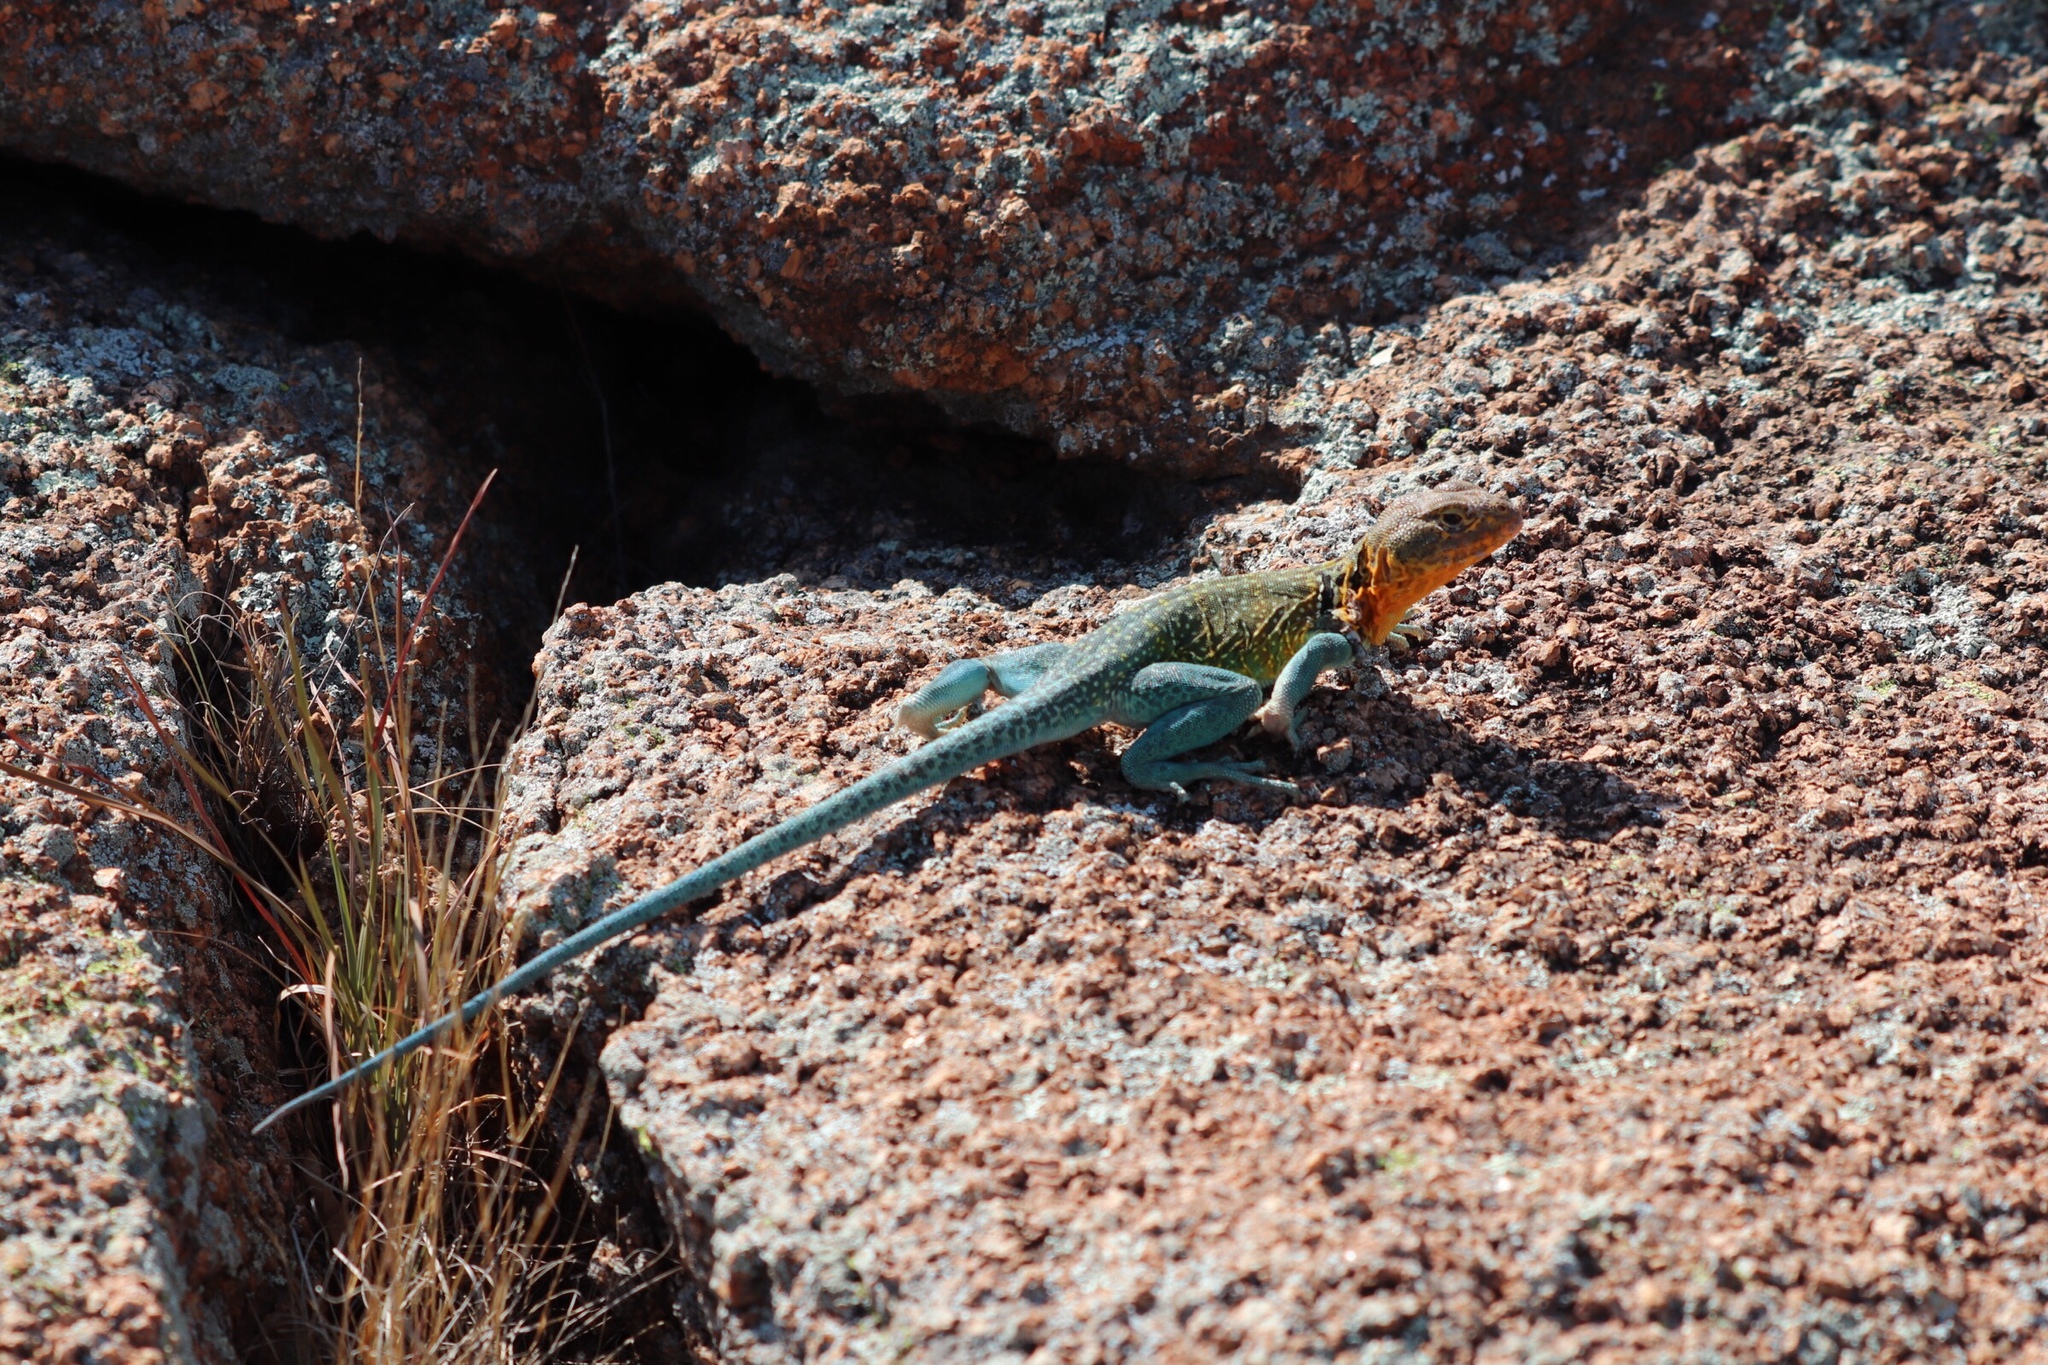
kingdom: Animalia
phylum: Chordata
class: Squamata
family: Crotaphytidae
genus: Crotaphytus
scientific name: Crotaphytus collaris
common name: Collared lizard
